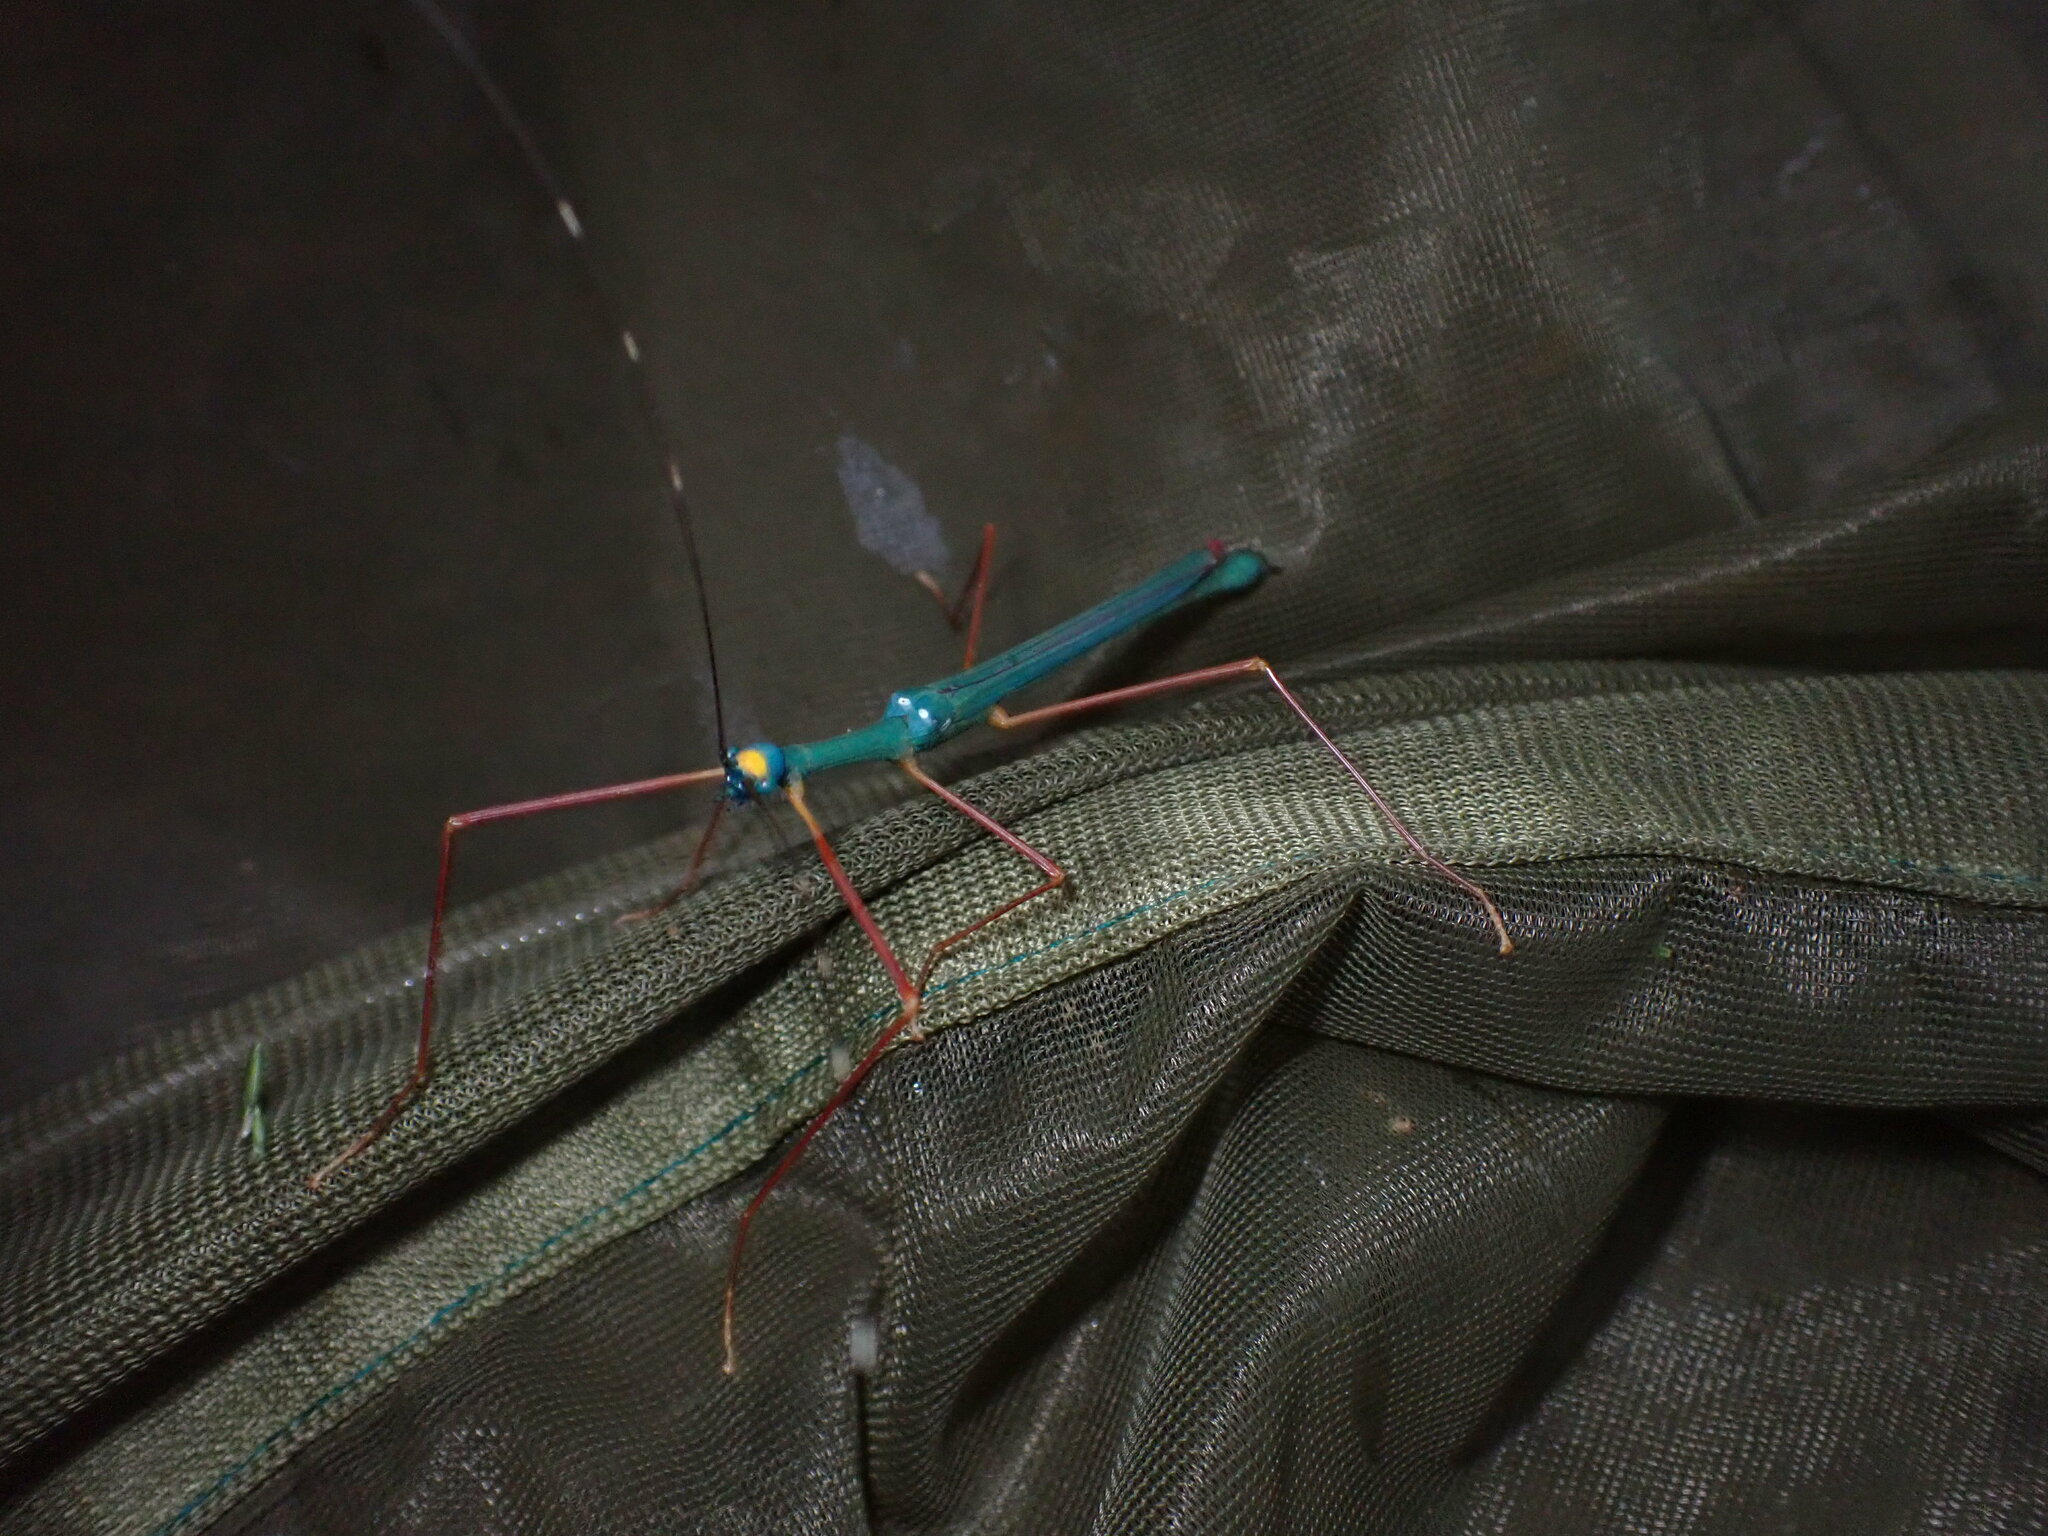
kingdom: Animalia
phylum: Arthropoda
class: Insecta
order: Phasmida
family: Lonchodidae
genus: Marmessoidea
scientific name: Marmessoidea rosea
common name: Yellow-spotted flying stick
